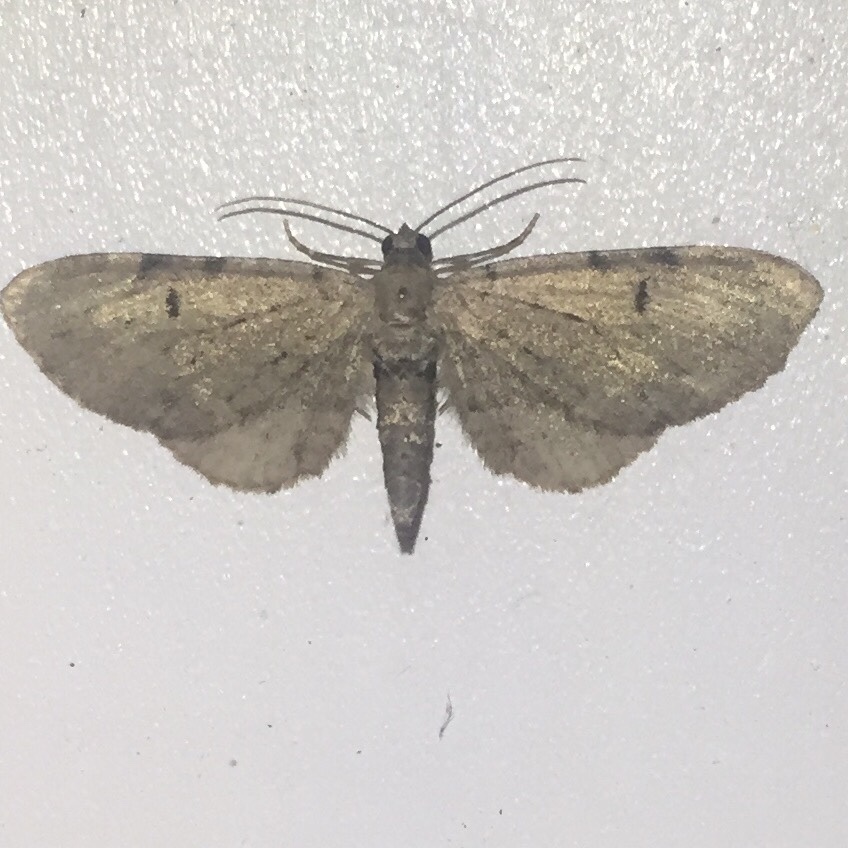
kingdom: Animalia
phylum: Arthropoda
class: Insecta
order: Lepidoptera
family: Geometridae
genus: Eupithecia
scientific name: Eupithecia absinthiata
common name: Wormwood pug
